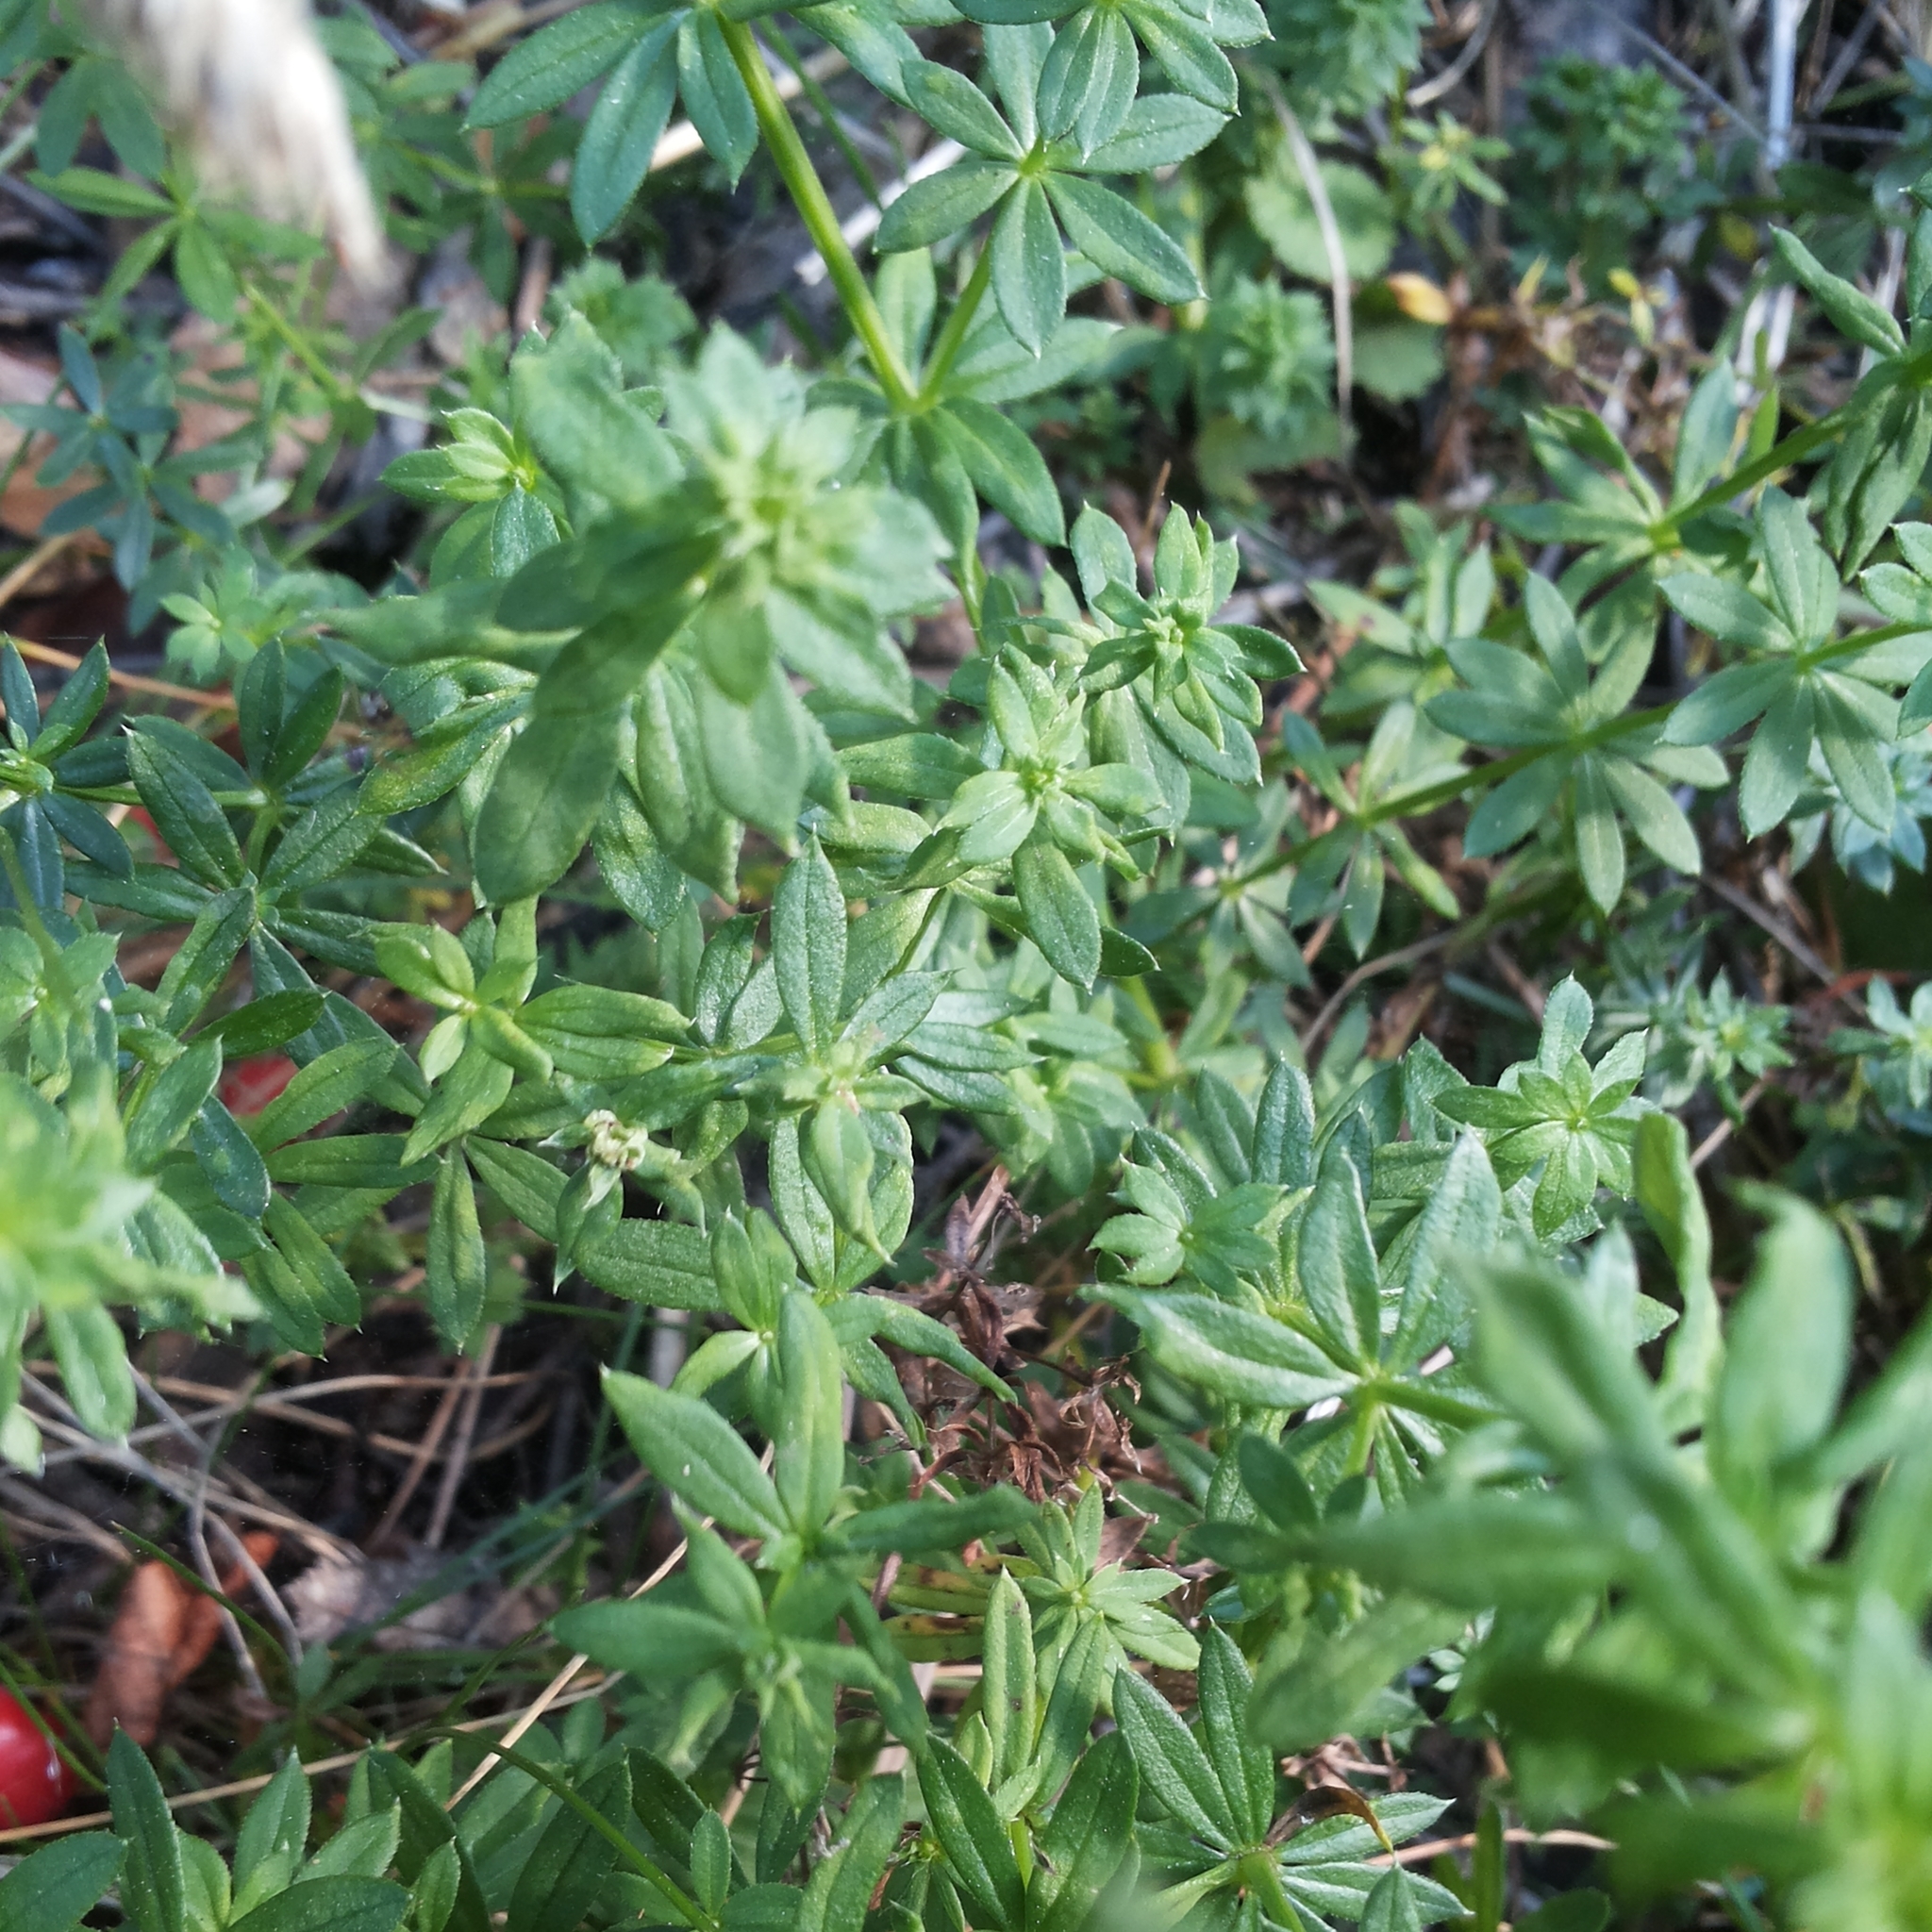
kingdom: Plantae
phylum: Tracheophyta
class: Magnoliopsida
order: Gentianales
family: Rubiaceae
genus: Galium
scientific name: Galium album
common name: White bedstraw
